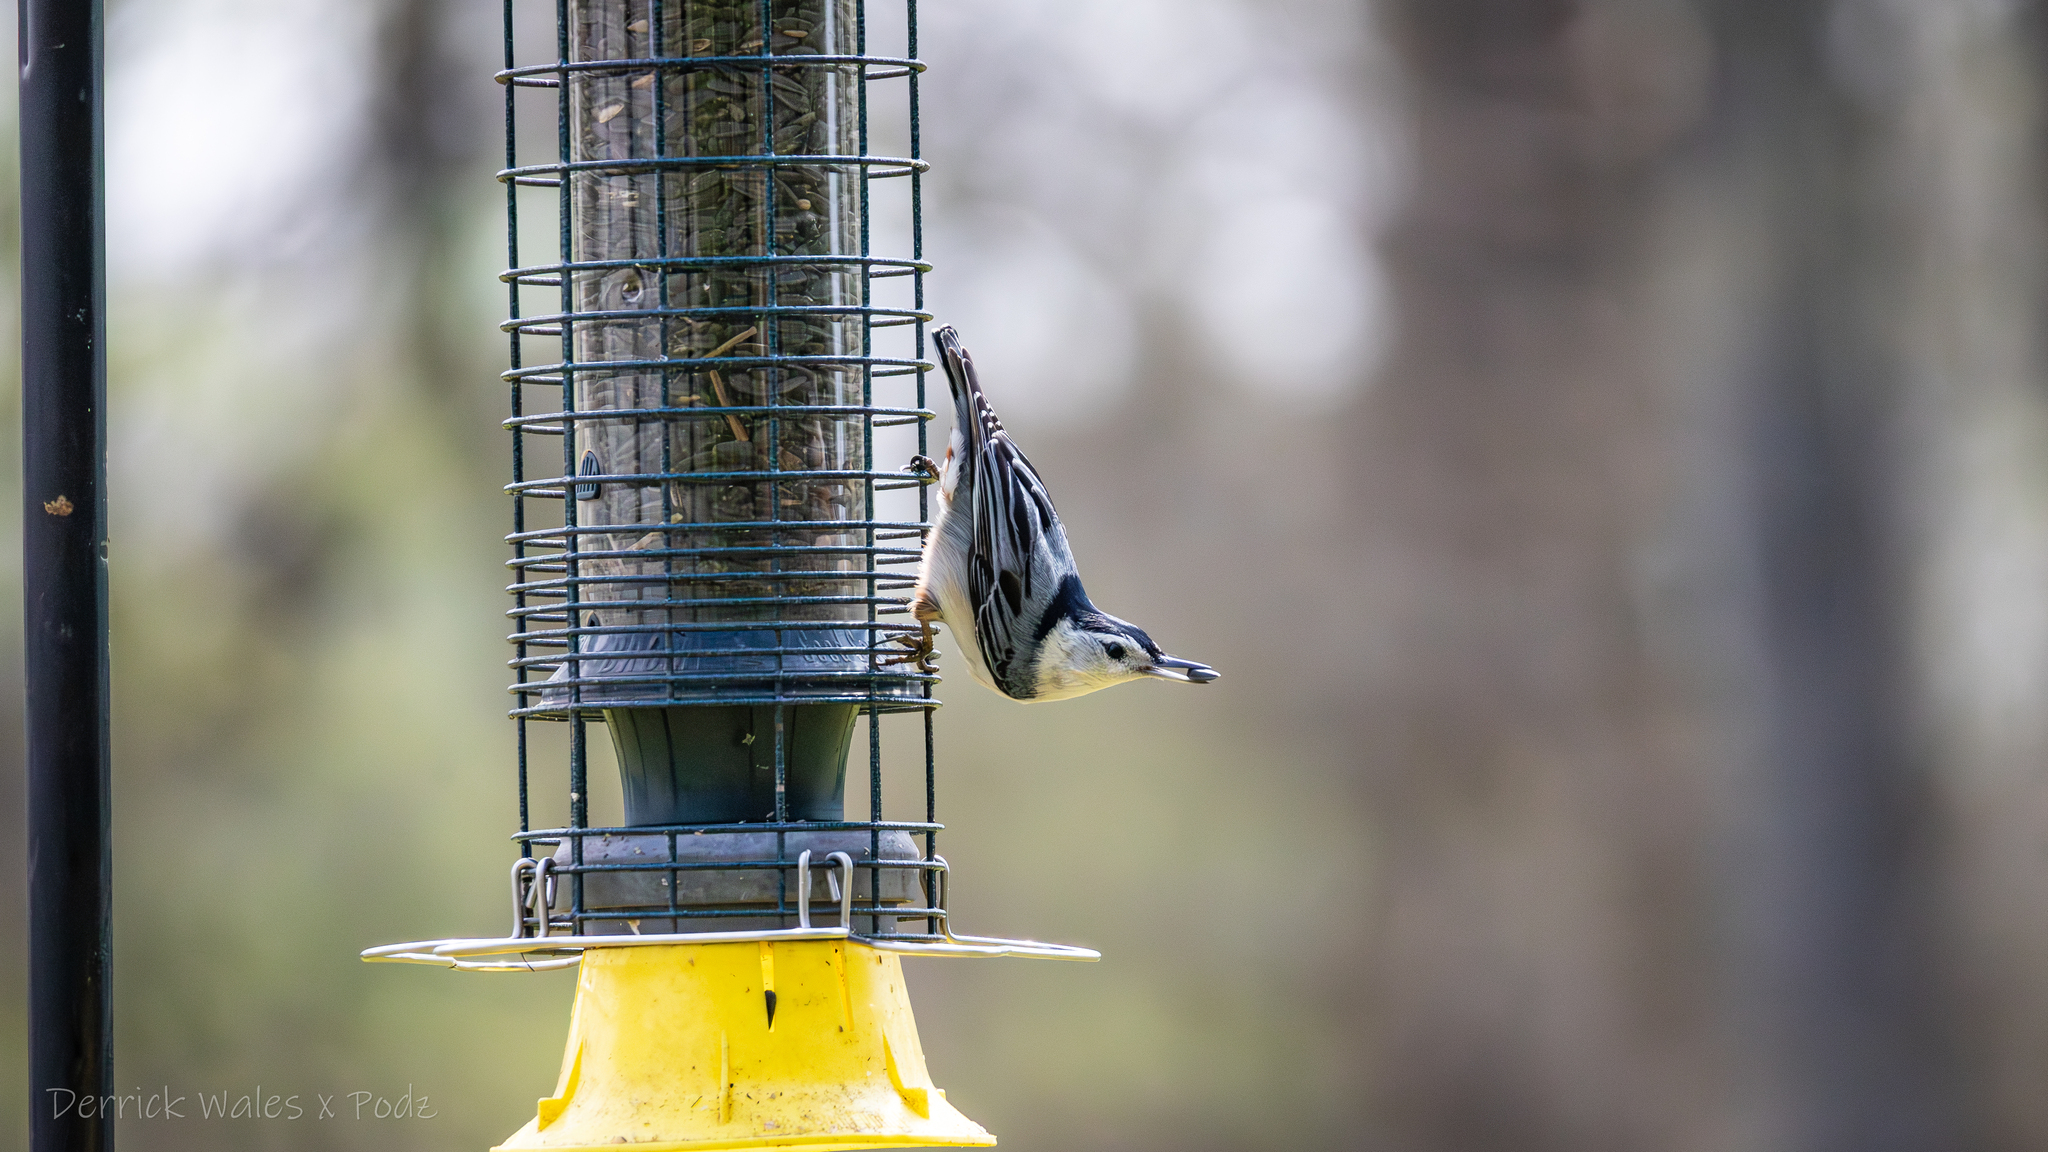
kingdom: Animalia
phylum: Chordata
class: Aves
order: Passeriformes
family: Sittidae
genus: Sitta
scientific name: Sitta carolinensis
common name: White-breasted nuthatch
